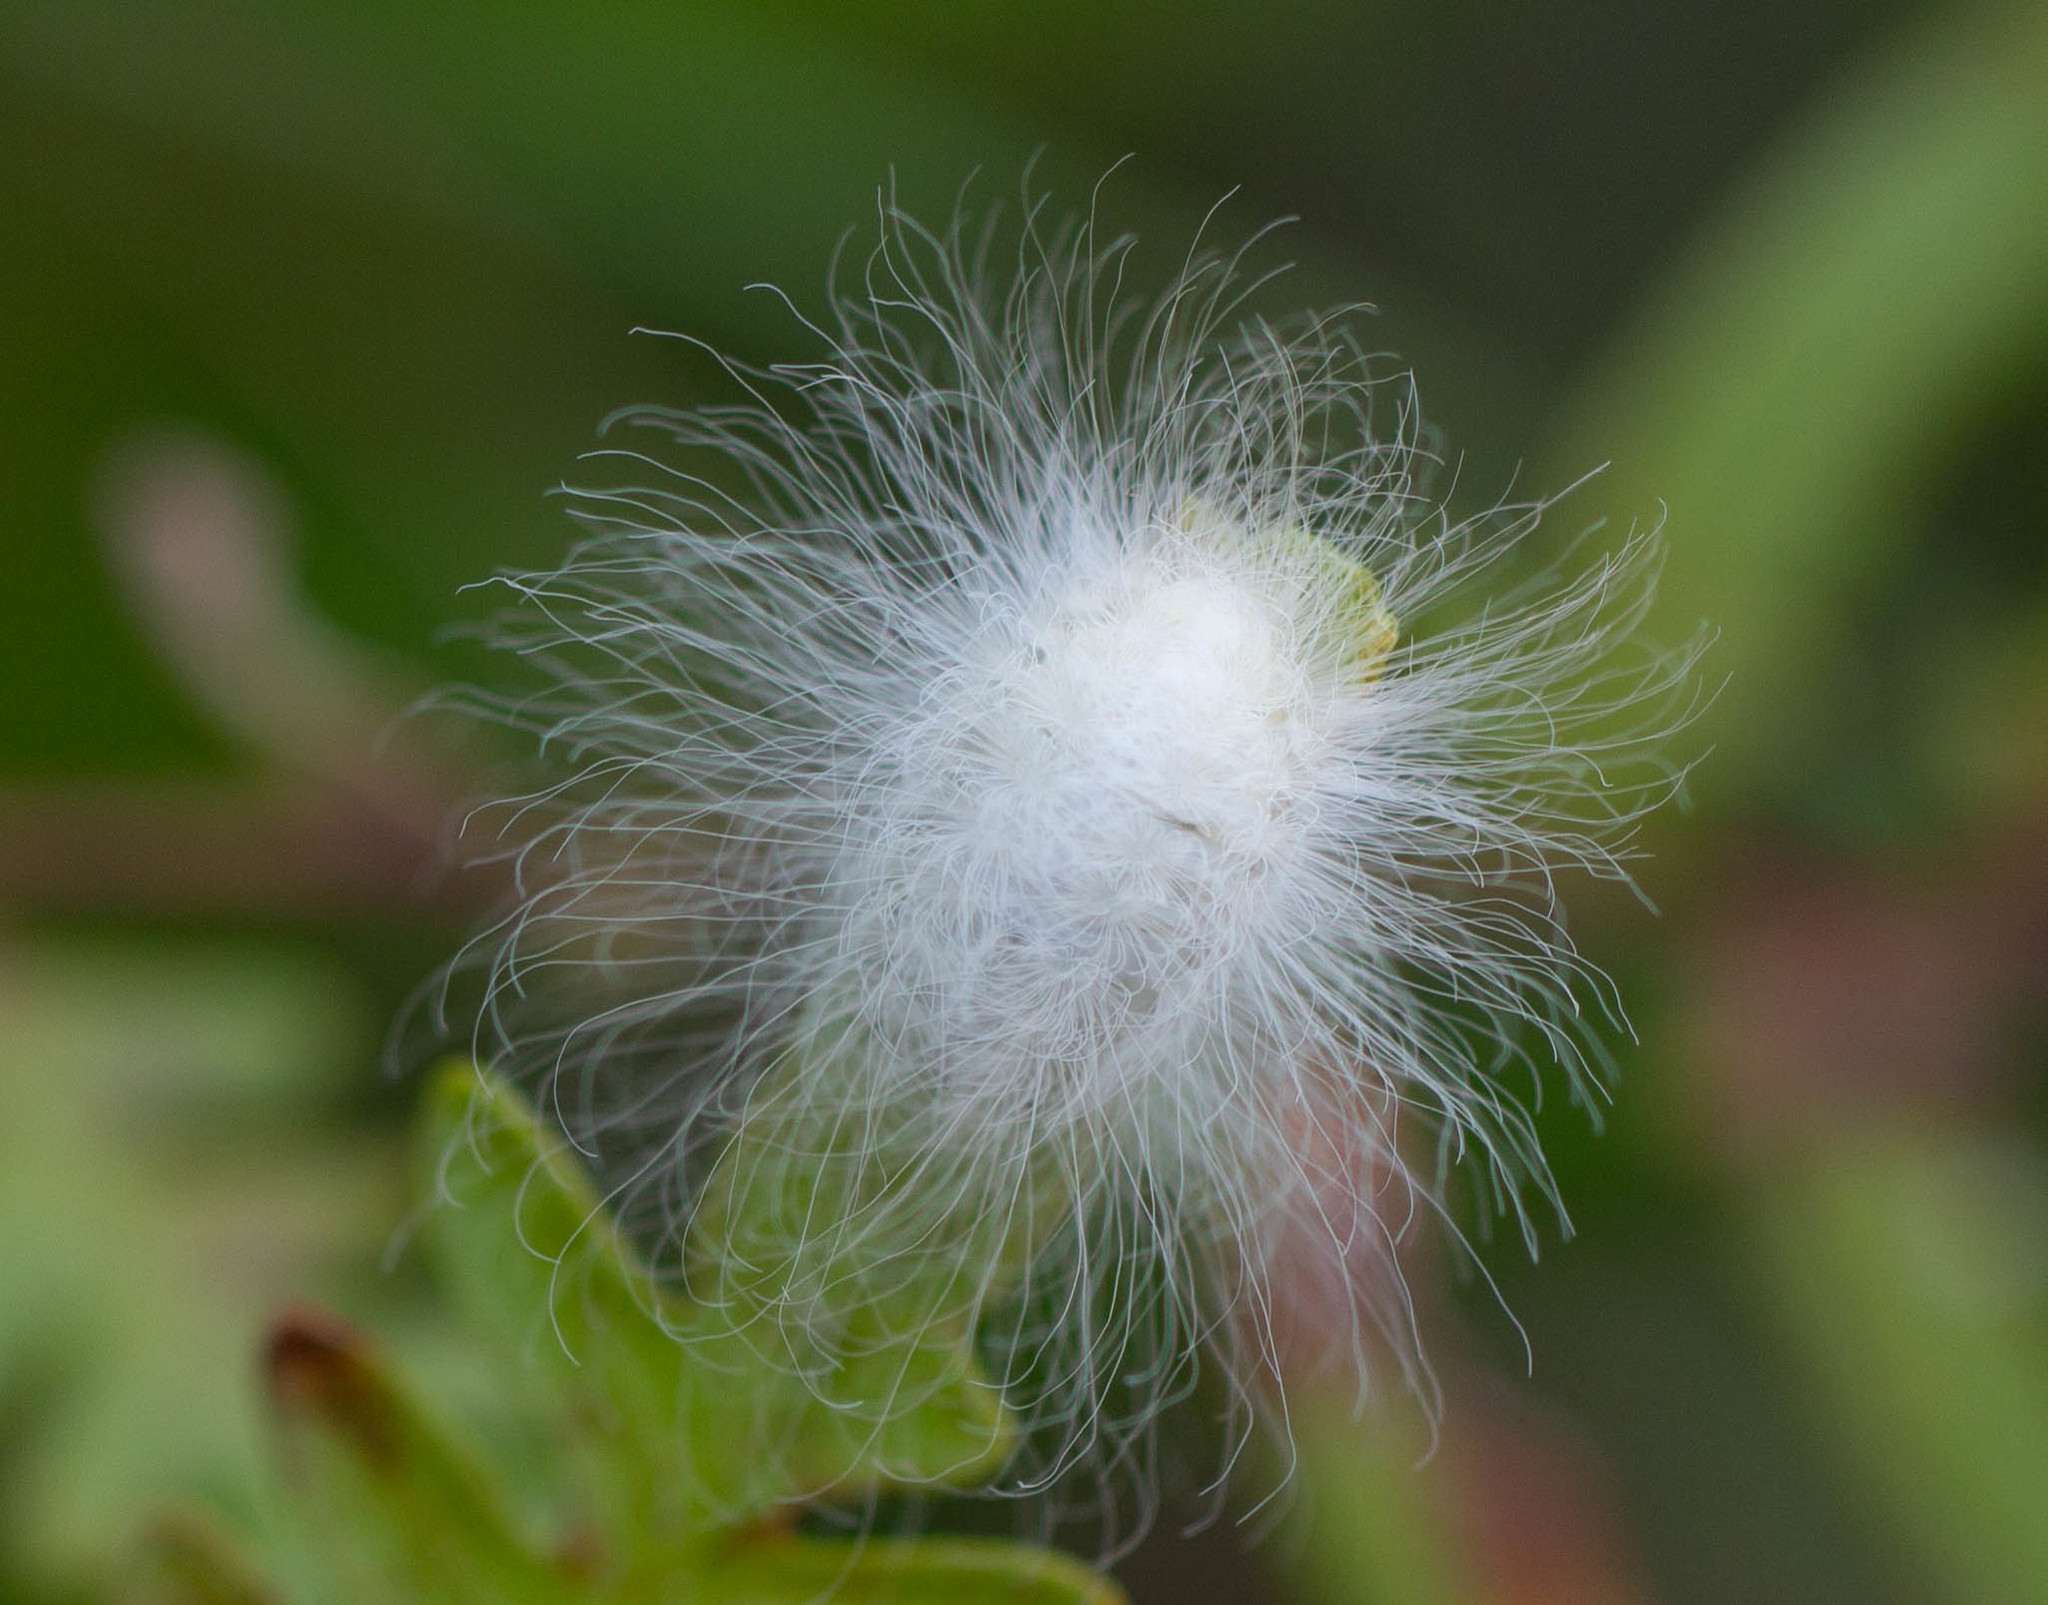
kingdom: Animalia
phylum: Arthropoda
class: Insecta
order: Lepidoptera
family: Megalopygidae
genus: Megalopyge
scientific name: Megalopyge
